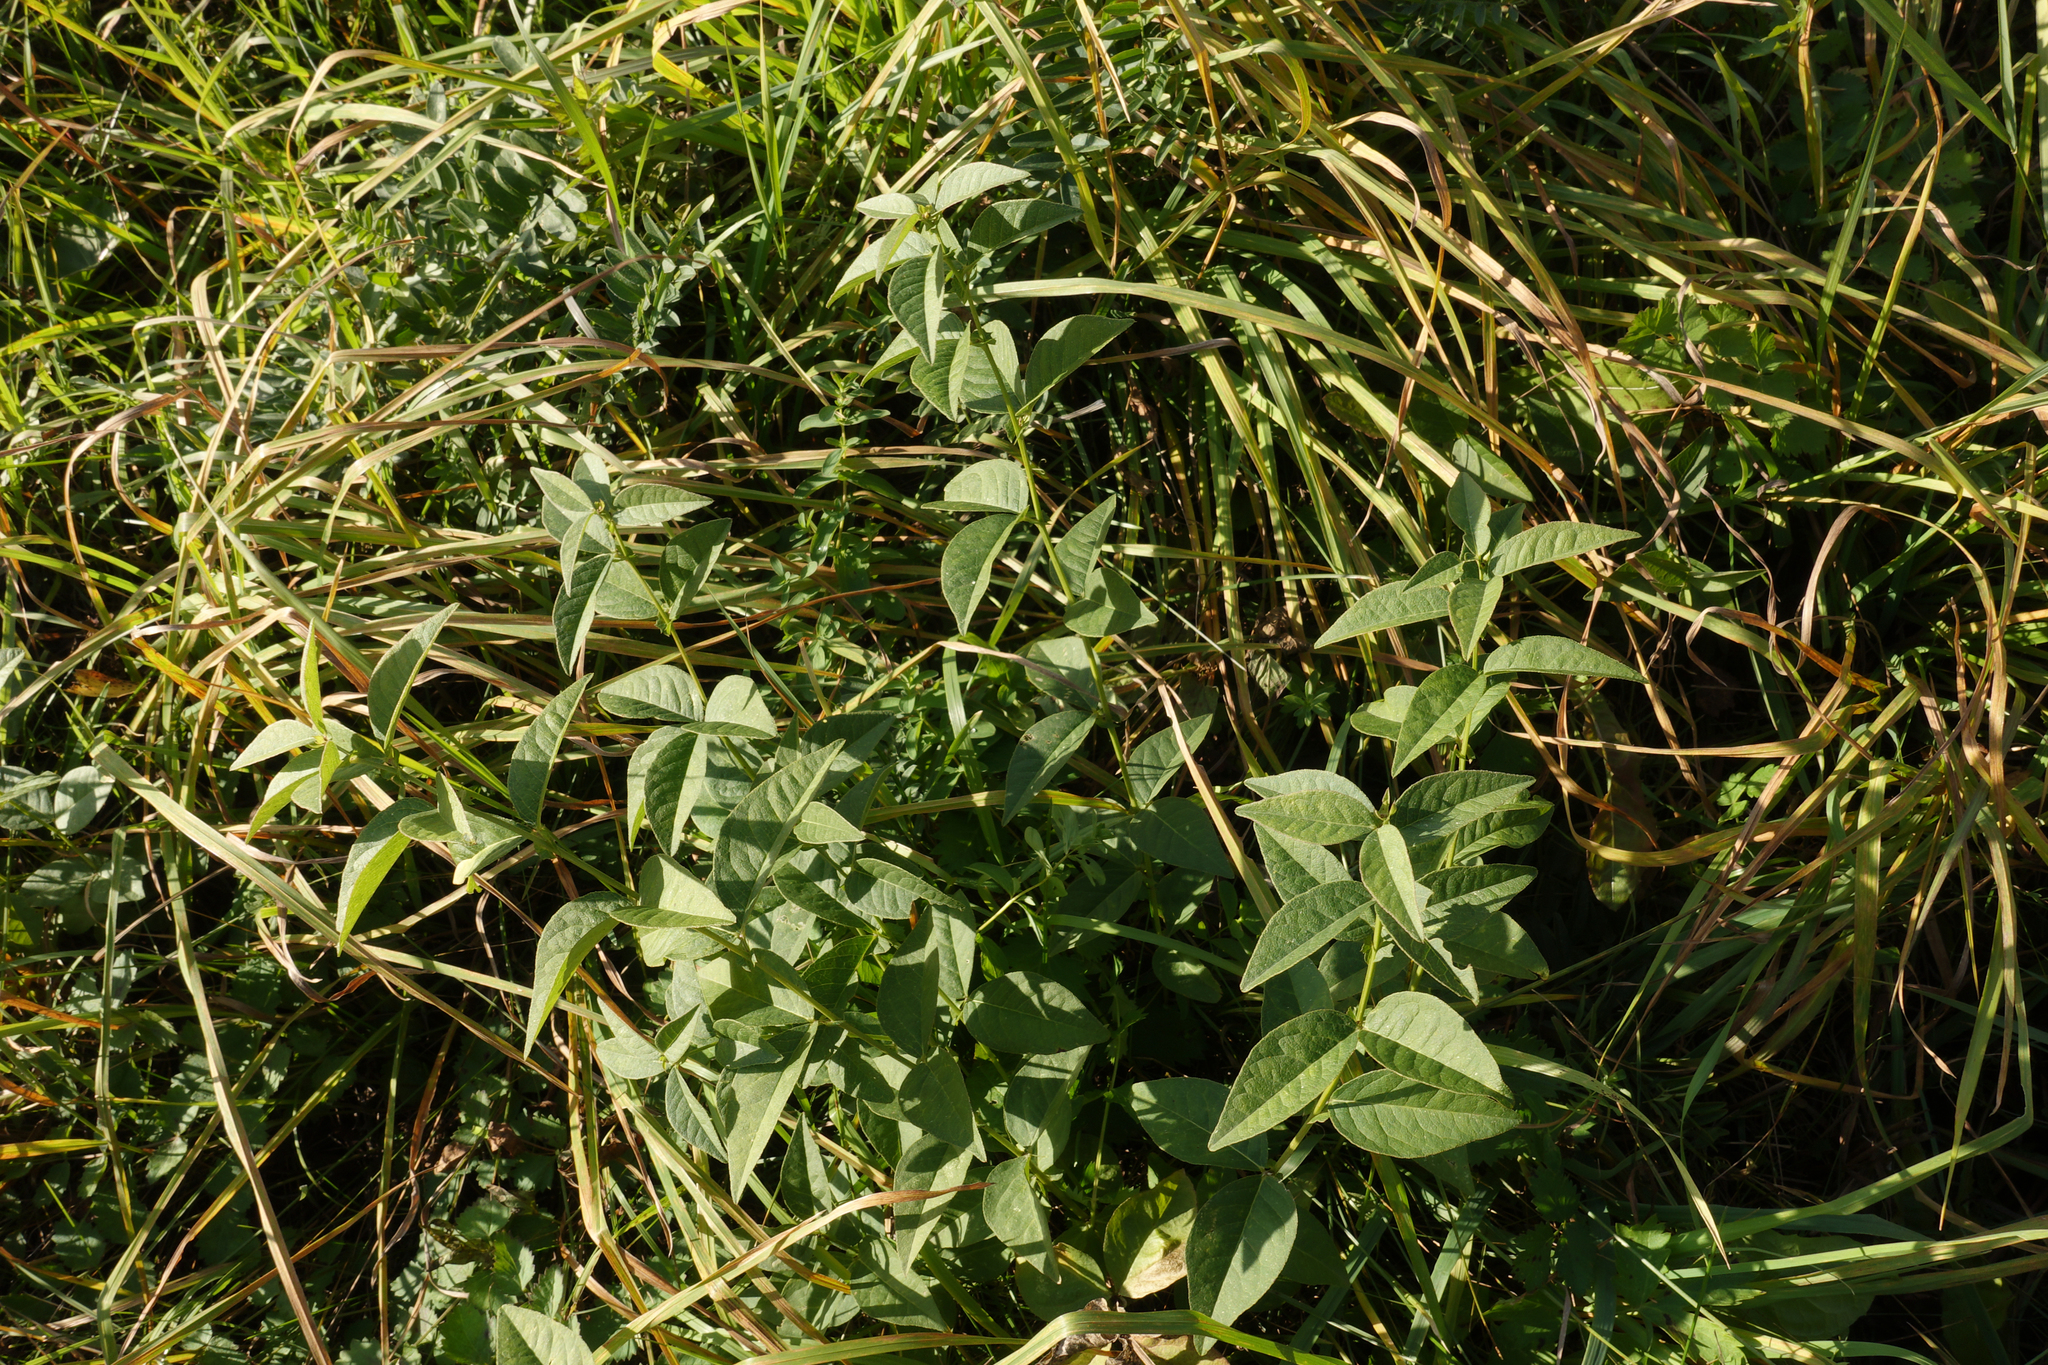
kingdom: Plantae
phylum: Tracheophyta
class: Magnoliopsida
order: Fabales
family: Fabaceae
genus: Vicia
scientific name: Vicia unijuga
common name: Two-leaf vetch
